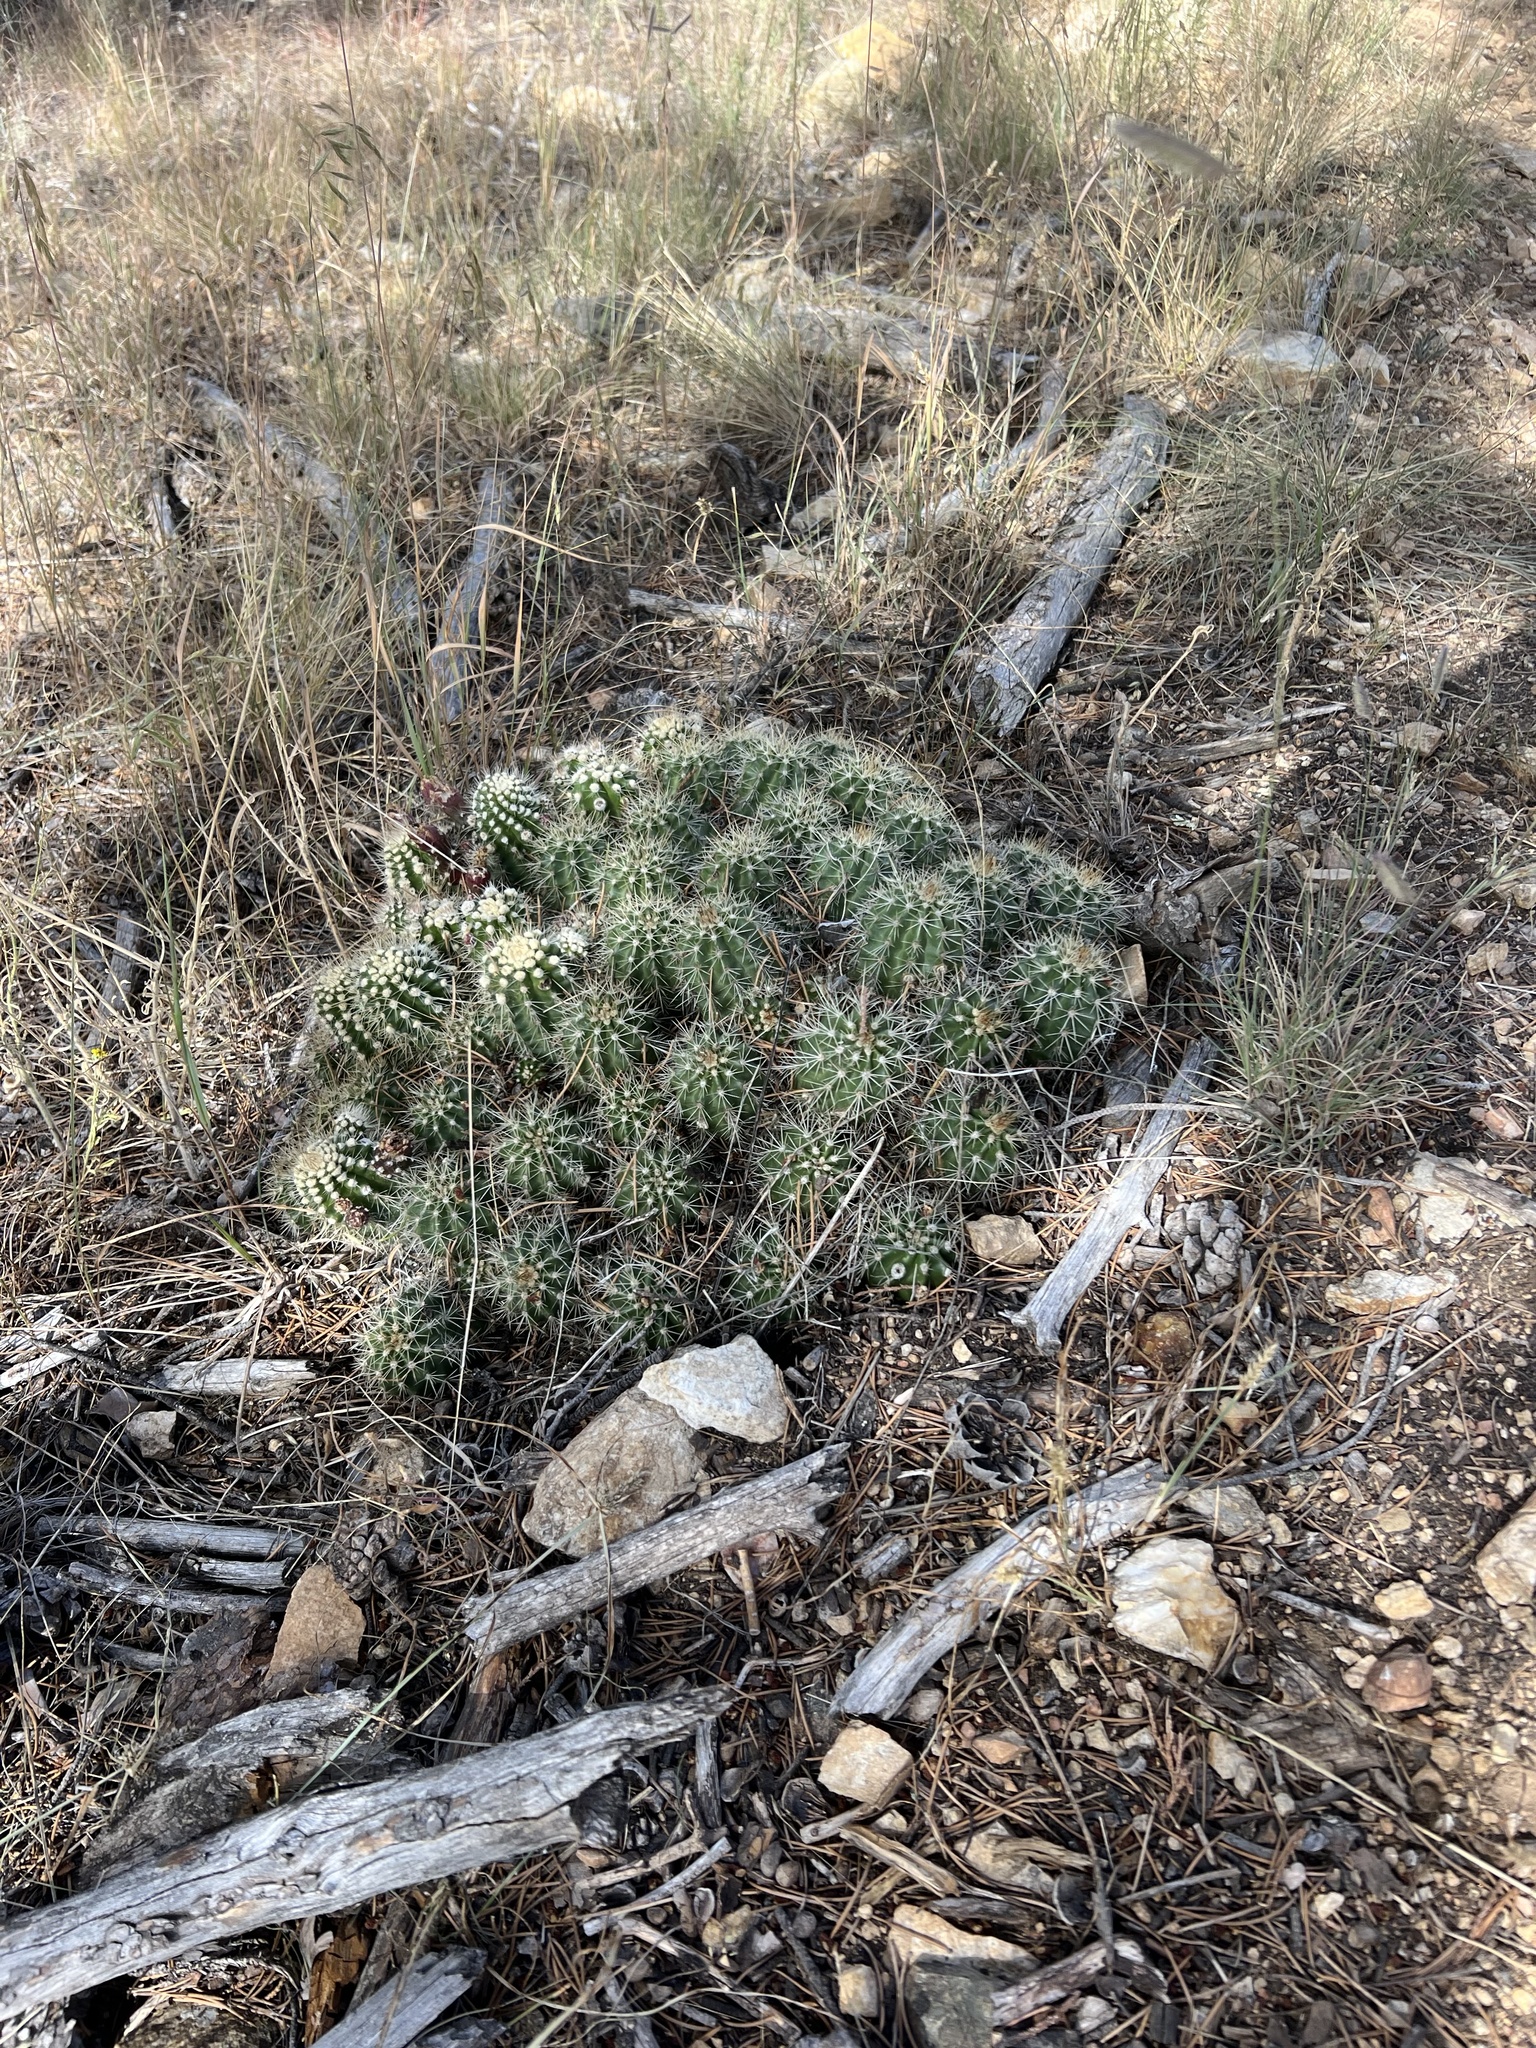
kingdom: Plantae
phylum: Tracheophyta
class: Magnoliopsida
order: Caryophyllales
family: Cactaceae
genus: Echinocereus
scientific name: Echinocereus bakeri
